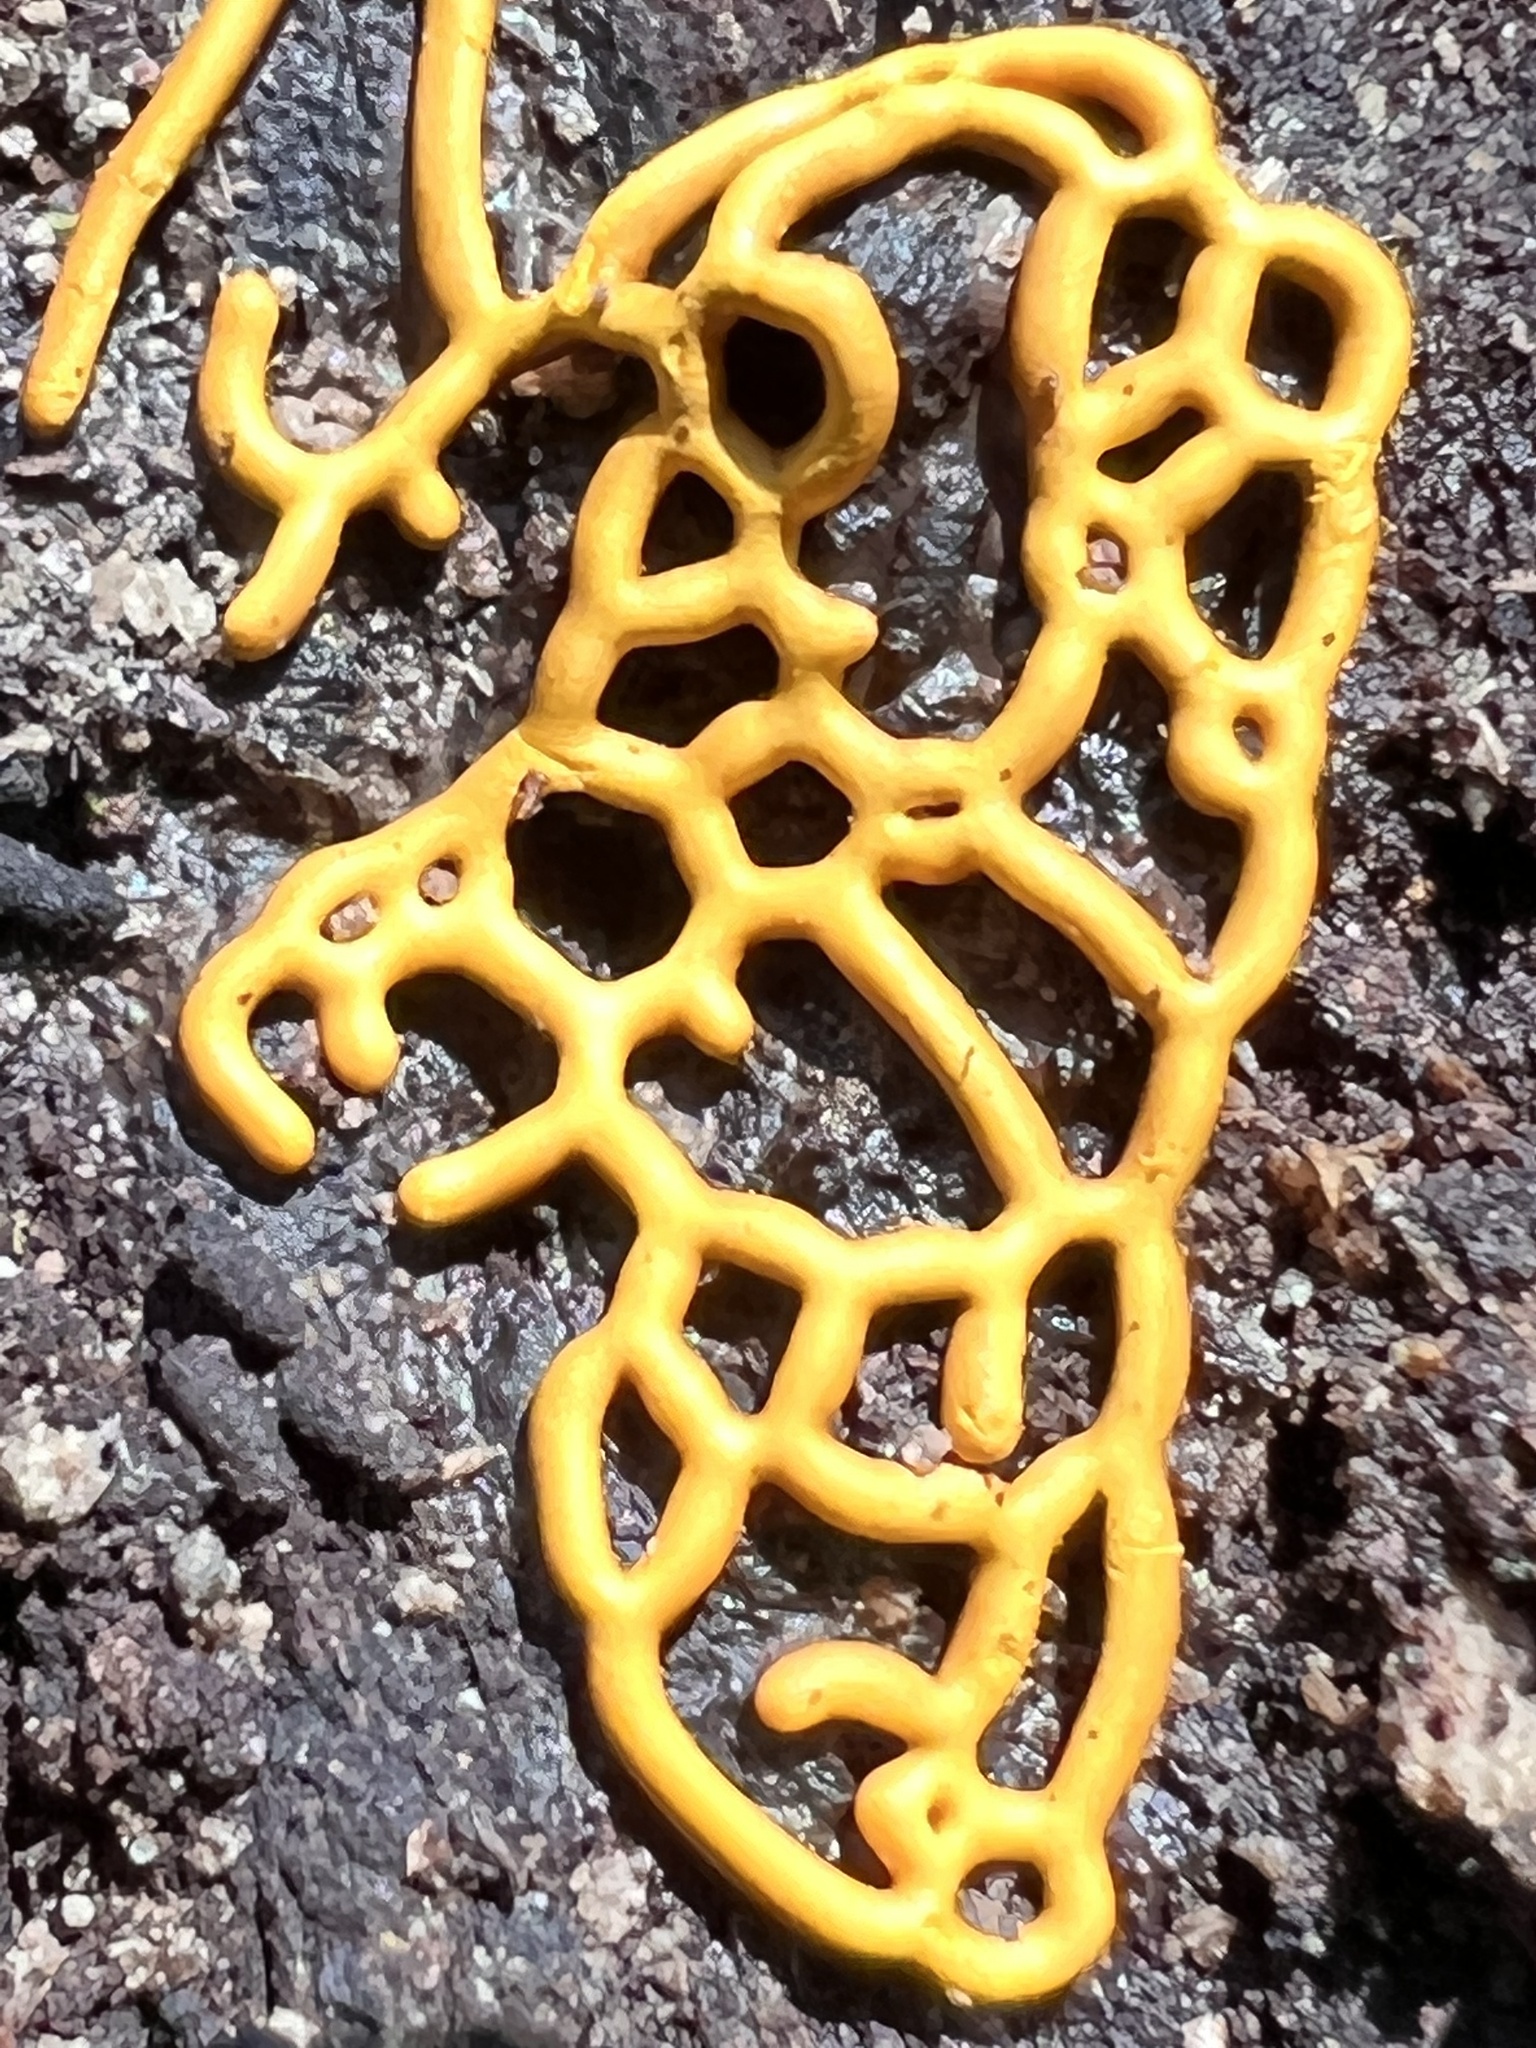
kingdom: Protozoa
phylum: Mycetozoa
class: Myxomycetes
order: Trichiales
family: Arcyriaceae
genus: Hemitrichia
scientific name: Hemitrichia serpula
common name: Pretzel slime mold
